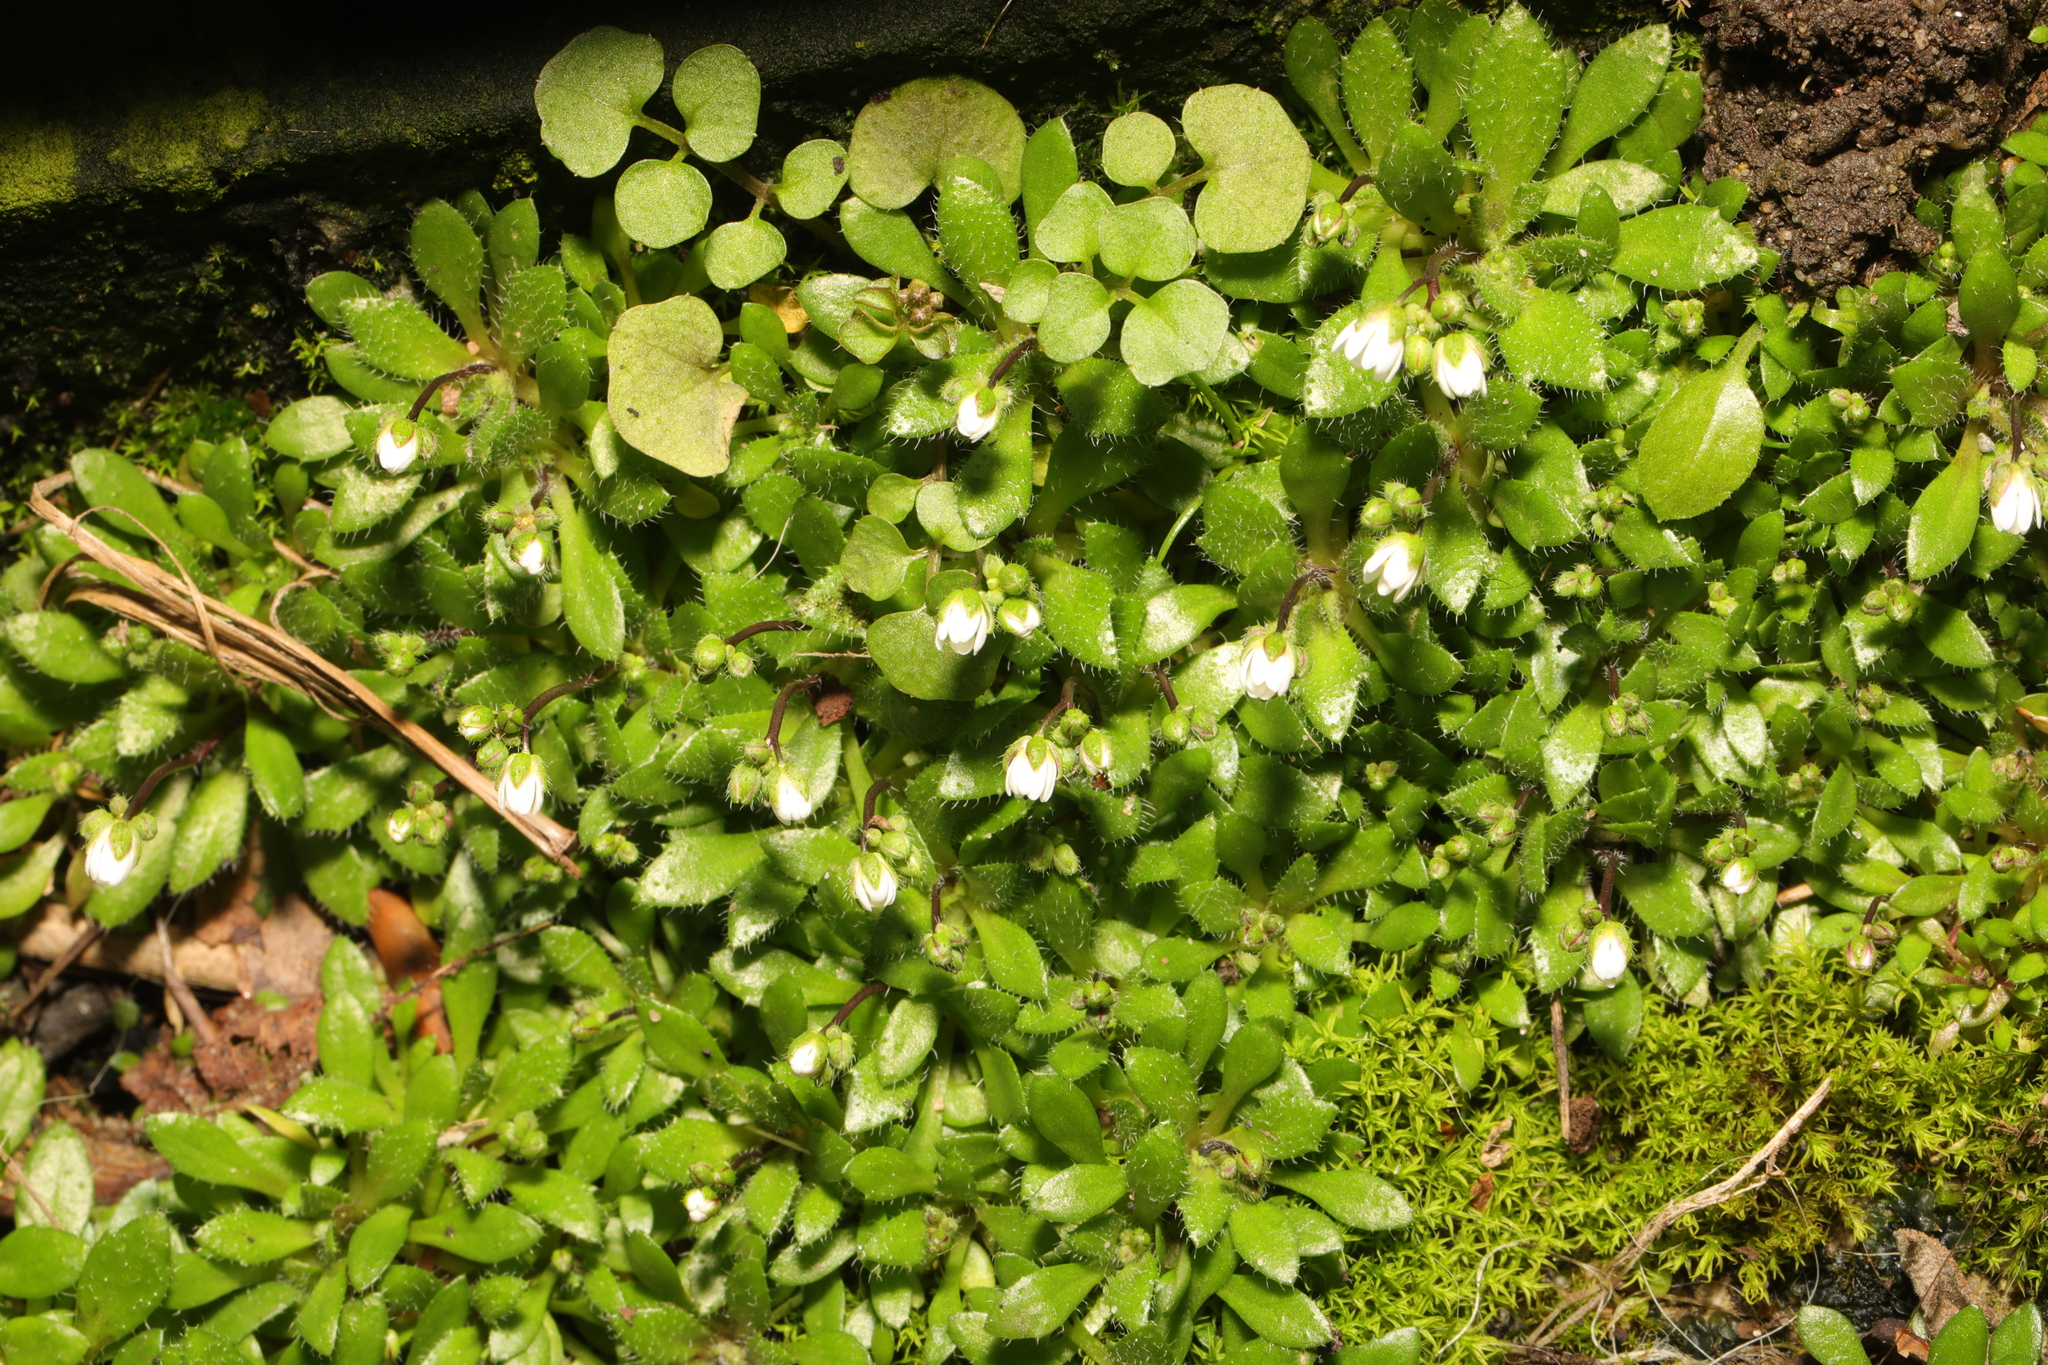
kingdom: Plantae
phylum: Tracheophyta
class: Magnoliopsida
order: Brassicales
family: Brassicaceae
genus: Draba
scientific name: Draba verna
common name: Spring draba
